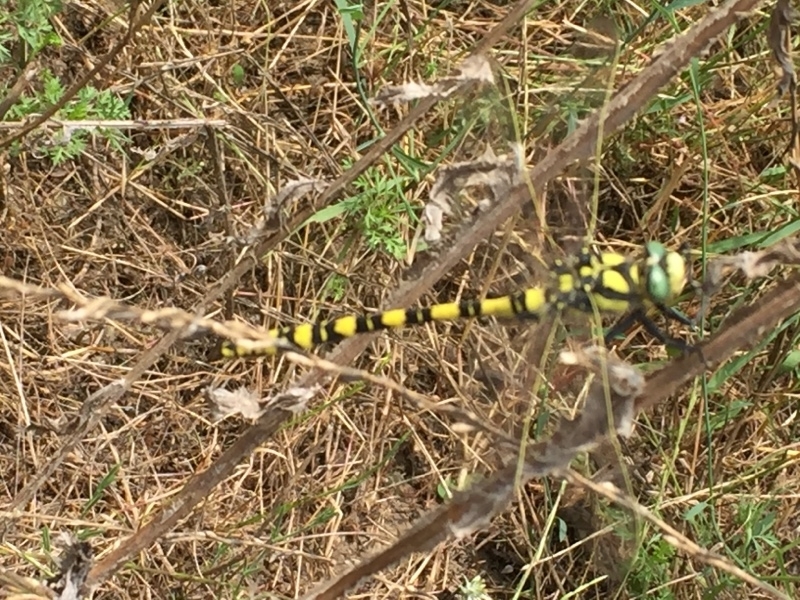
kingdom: Animalia
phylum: Arthropoda
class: Insecta
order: Odonata
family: Cordulegastridae
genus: Cordulegaster
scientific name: Cordulegaster charpentieri
